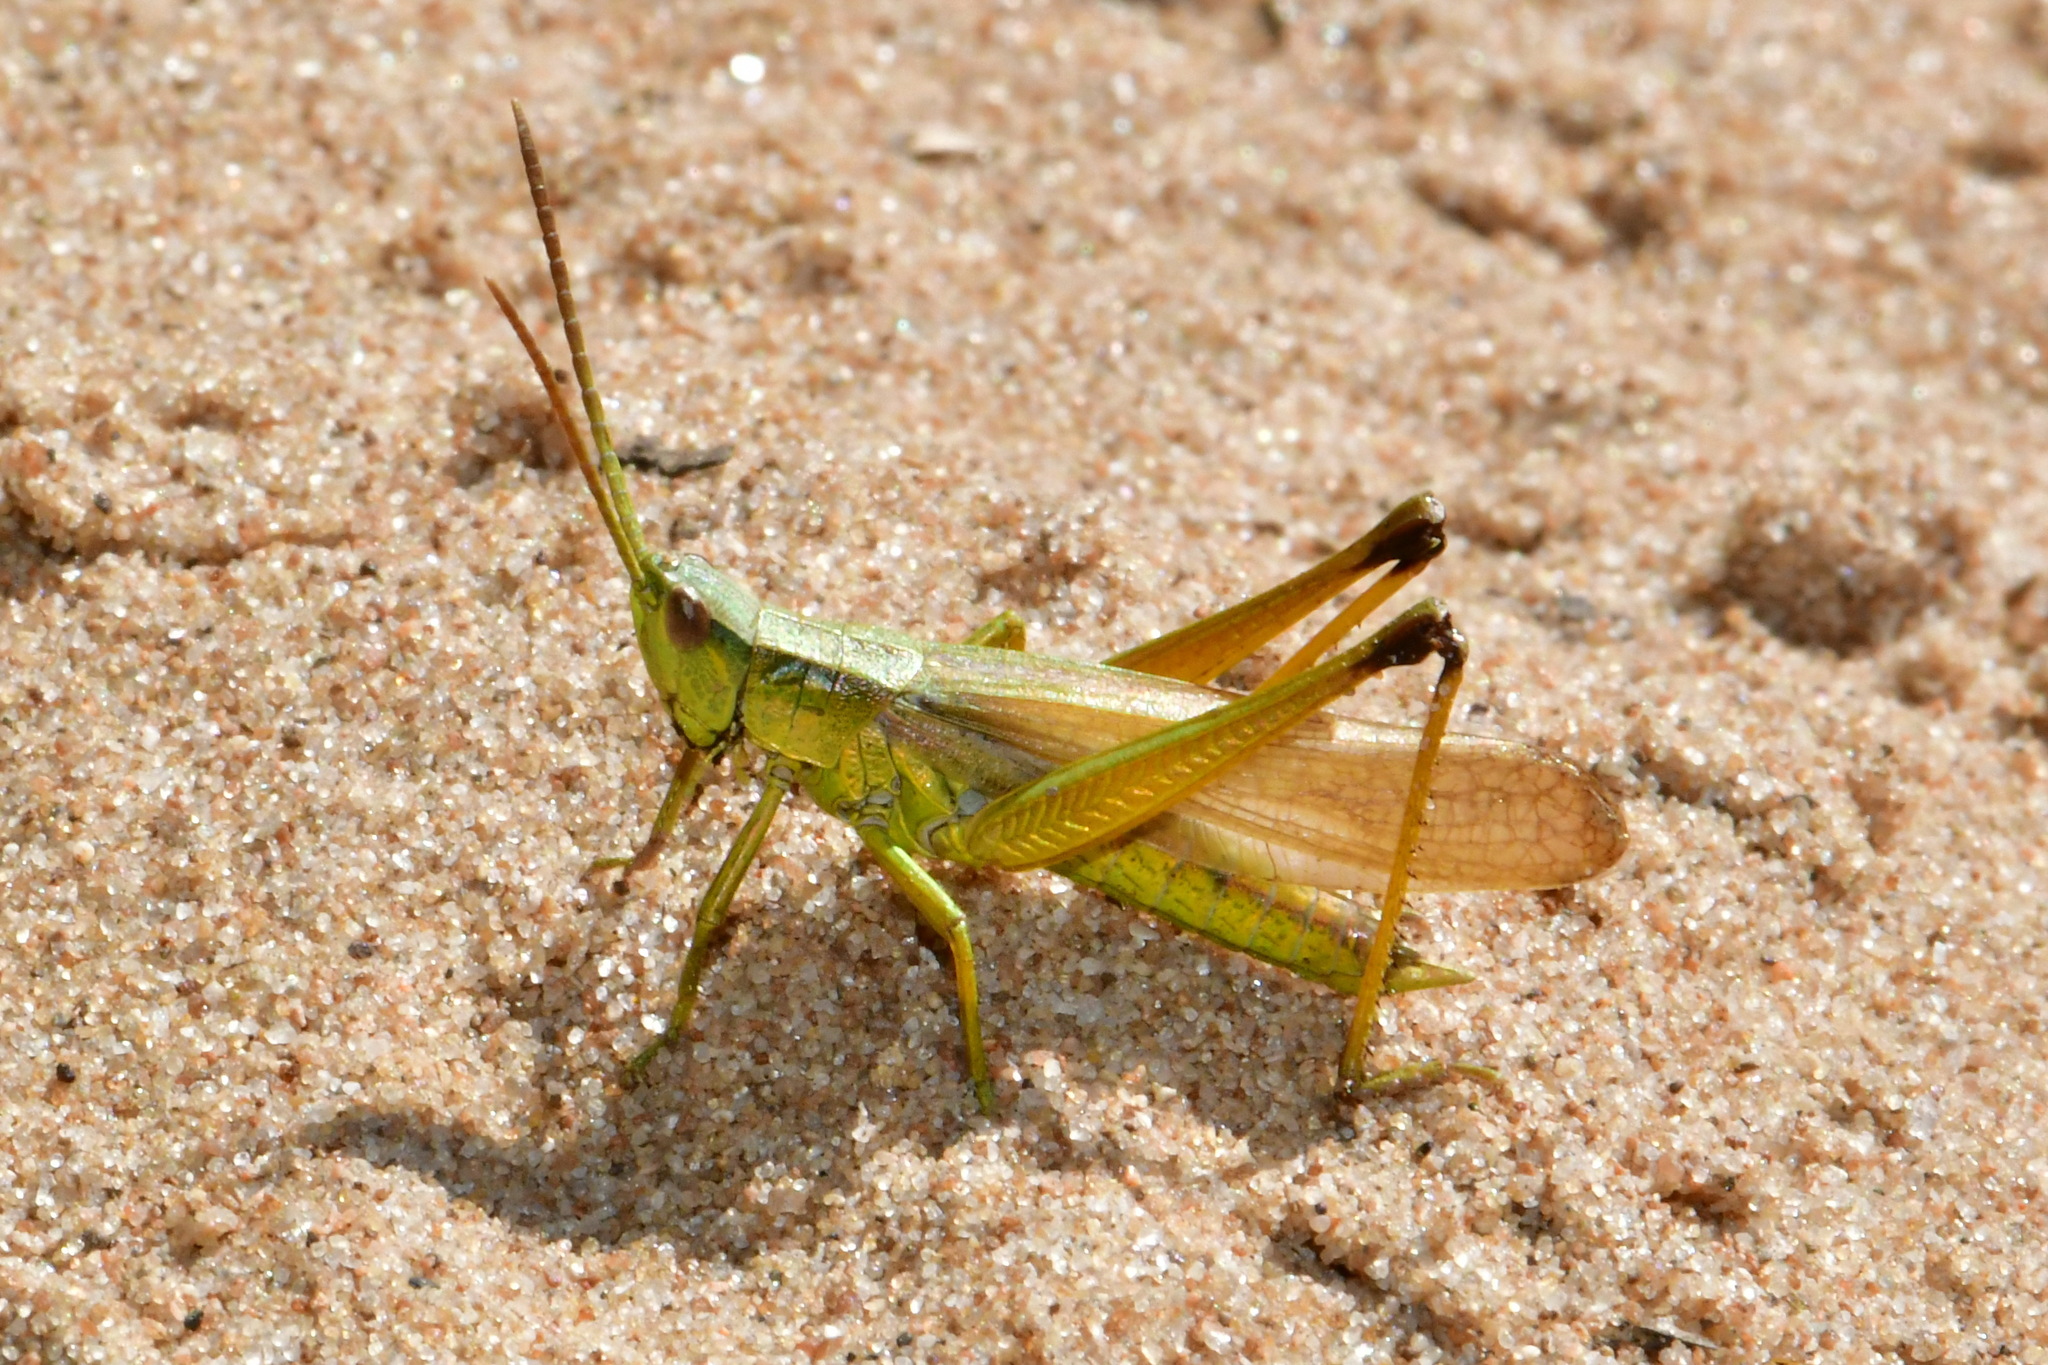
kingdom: Animalia
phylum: Arthropoda
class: Insecta
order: Orthoptera
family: Acrididae
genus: Chrysochraon
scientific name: Chrysochraon dispar
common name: Large gold grasshopper
